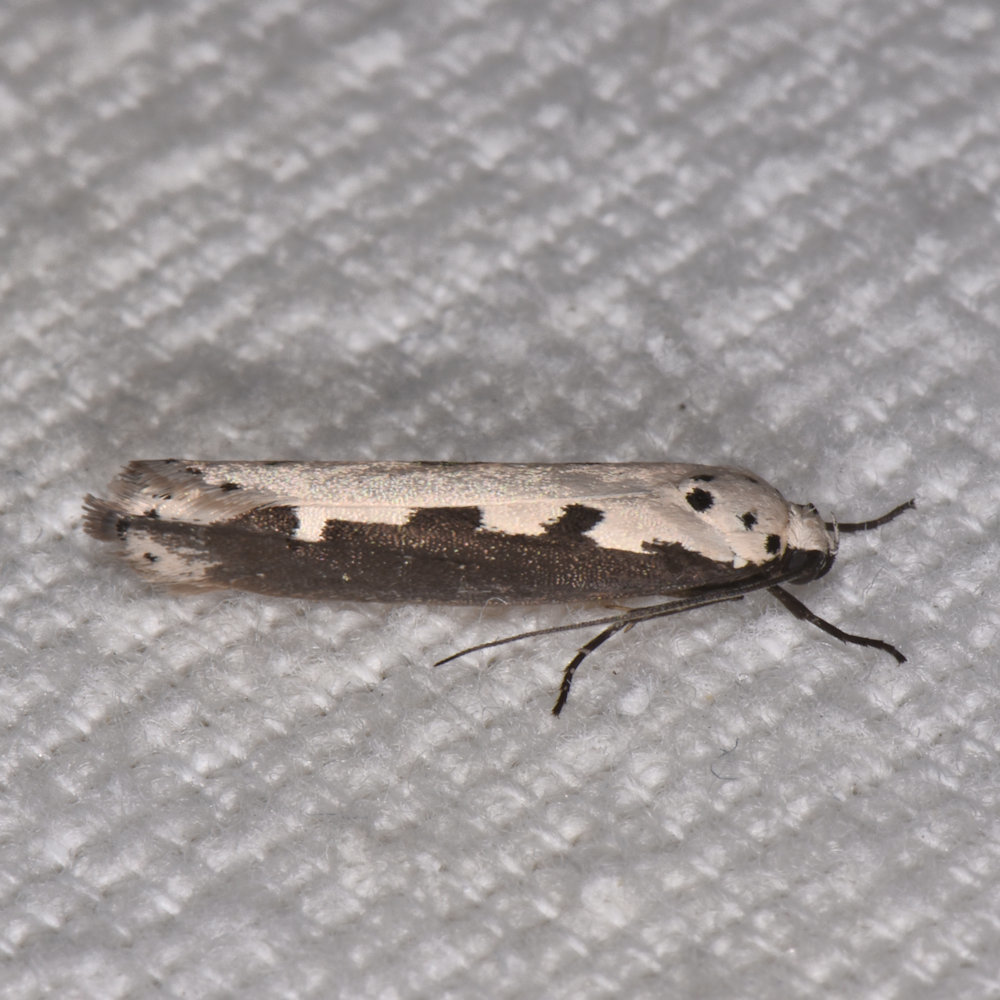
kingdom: Animalia
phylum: Arthropoda
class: Insecta
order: Lepidoptera
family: Ethmiidae
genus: Ethmia
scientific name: Ethmia bipunctella
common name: Bordered ermel
